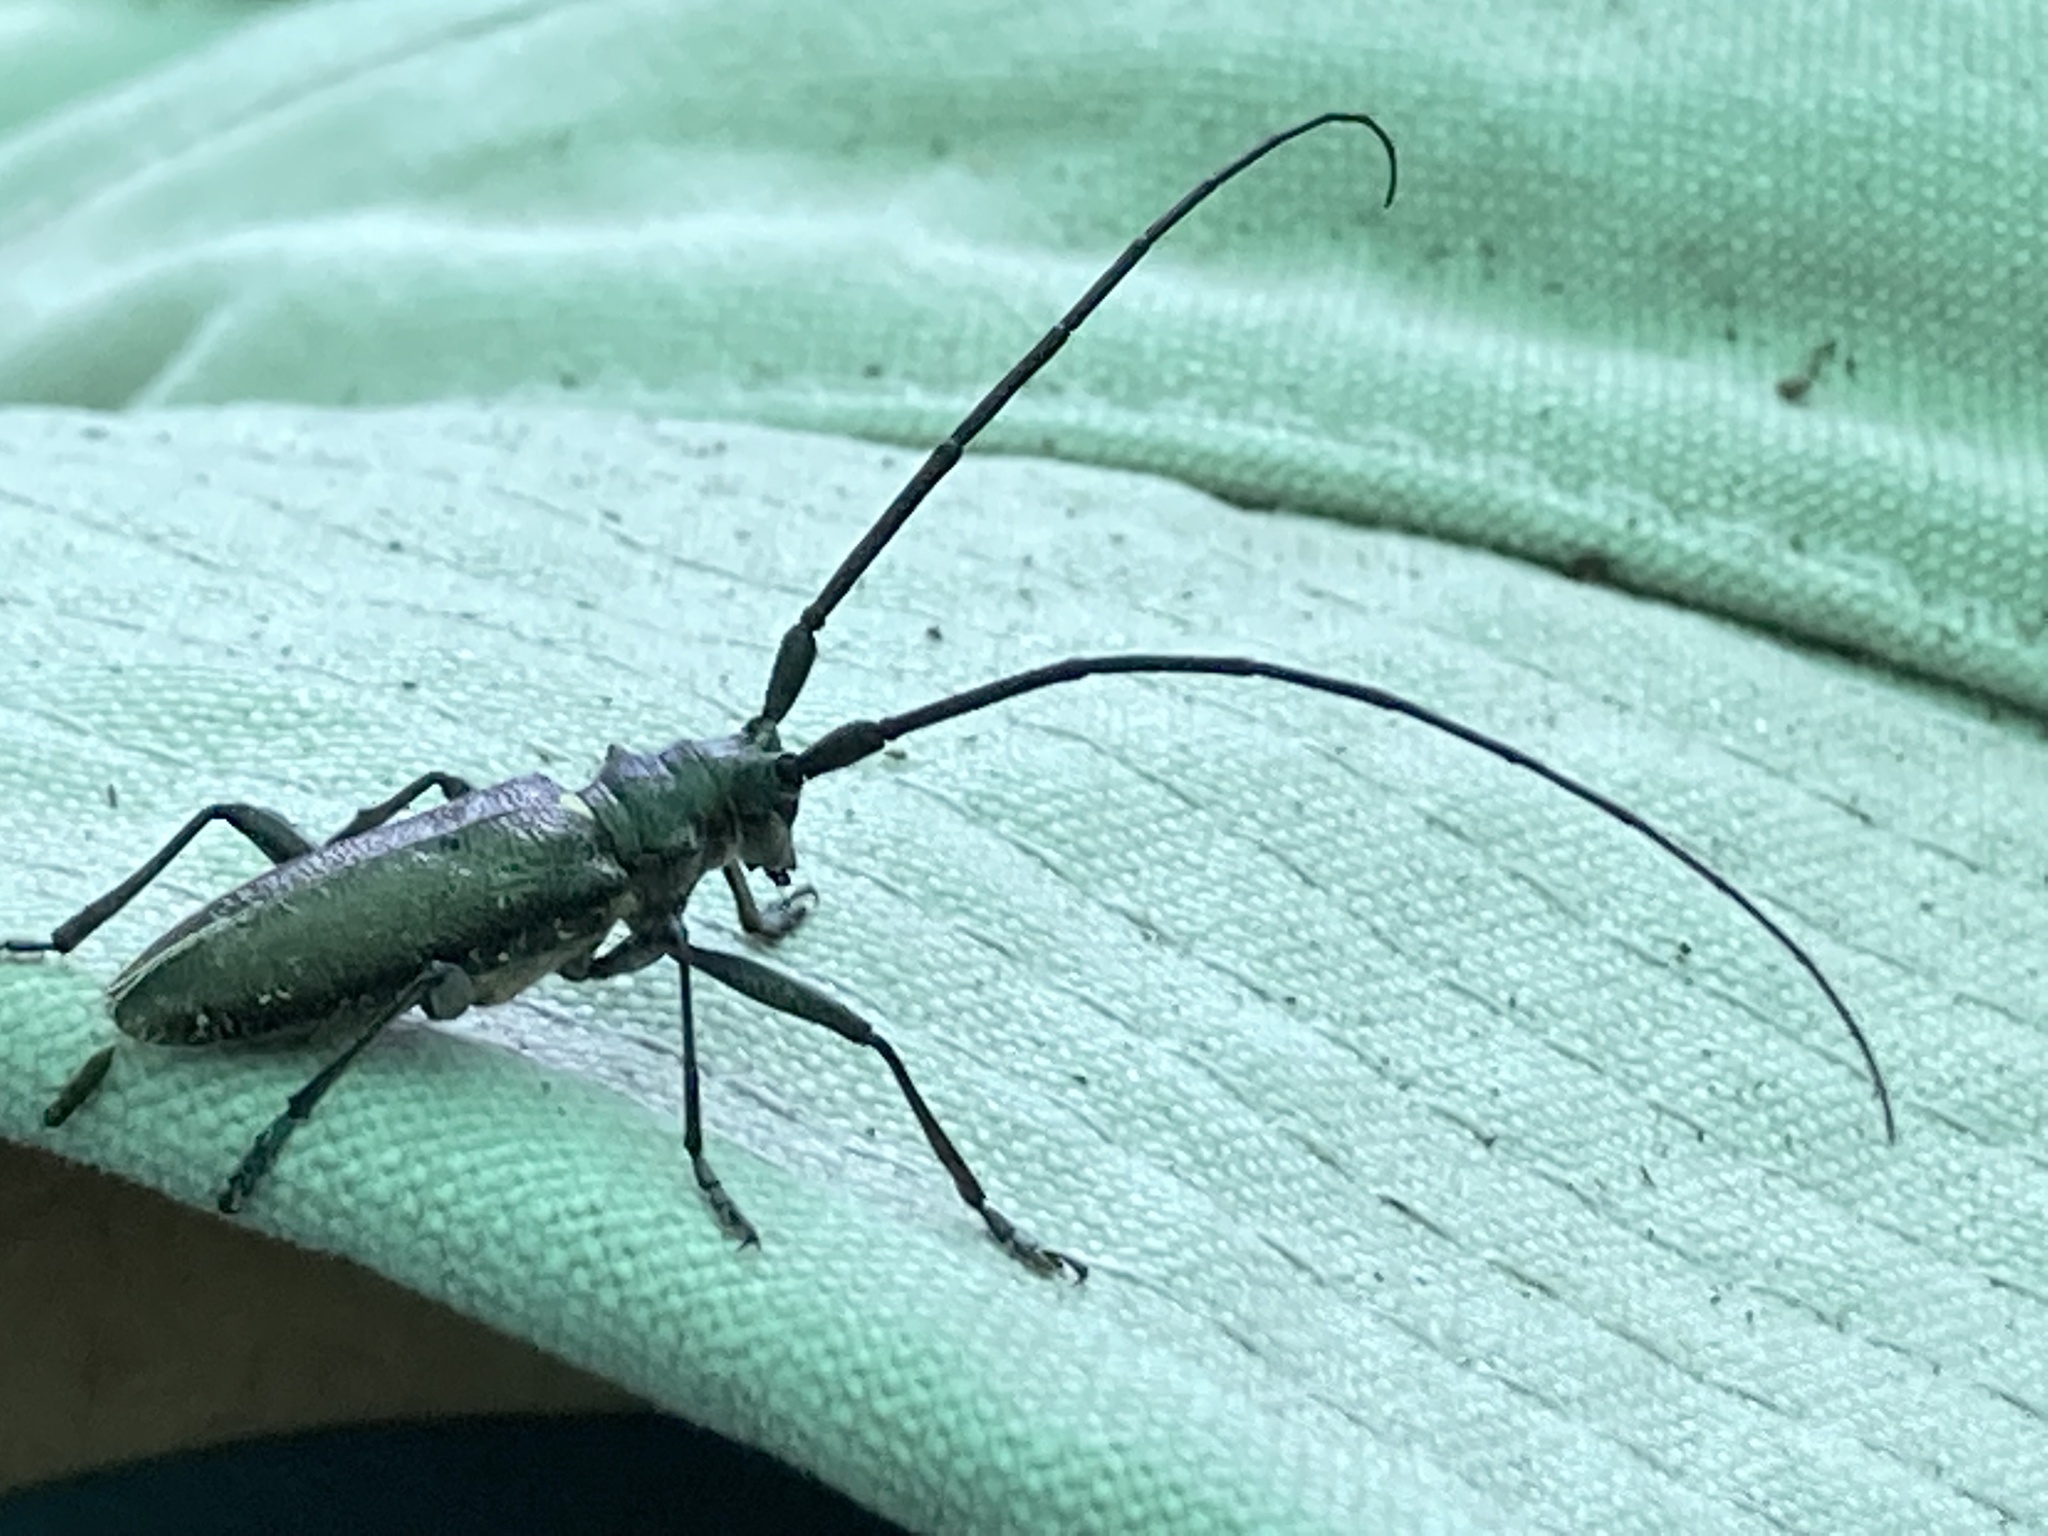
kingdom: Animalia
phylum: Arthropoda
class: Insecta
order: Coleoptera
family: Cerambycidae
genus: Monochamus
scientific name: Monochamus scutellatus
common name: White-spotted sawyer beetle
